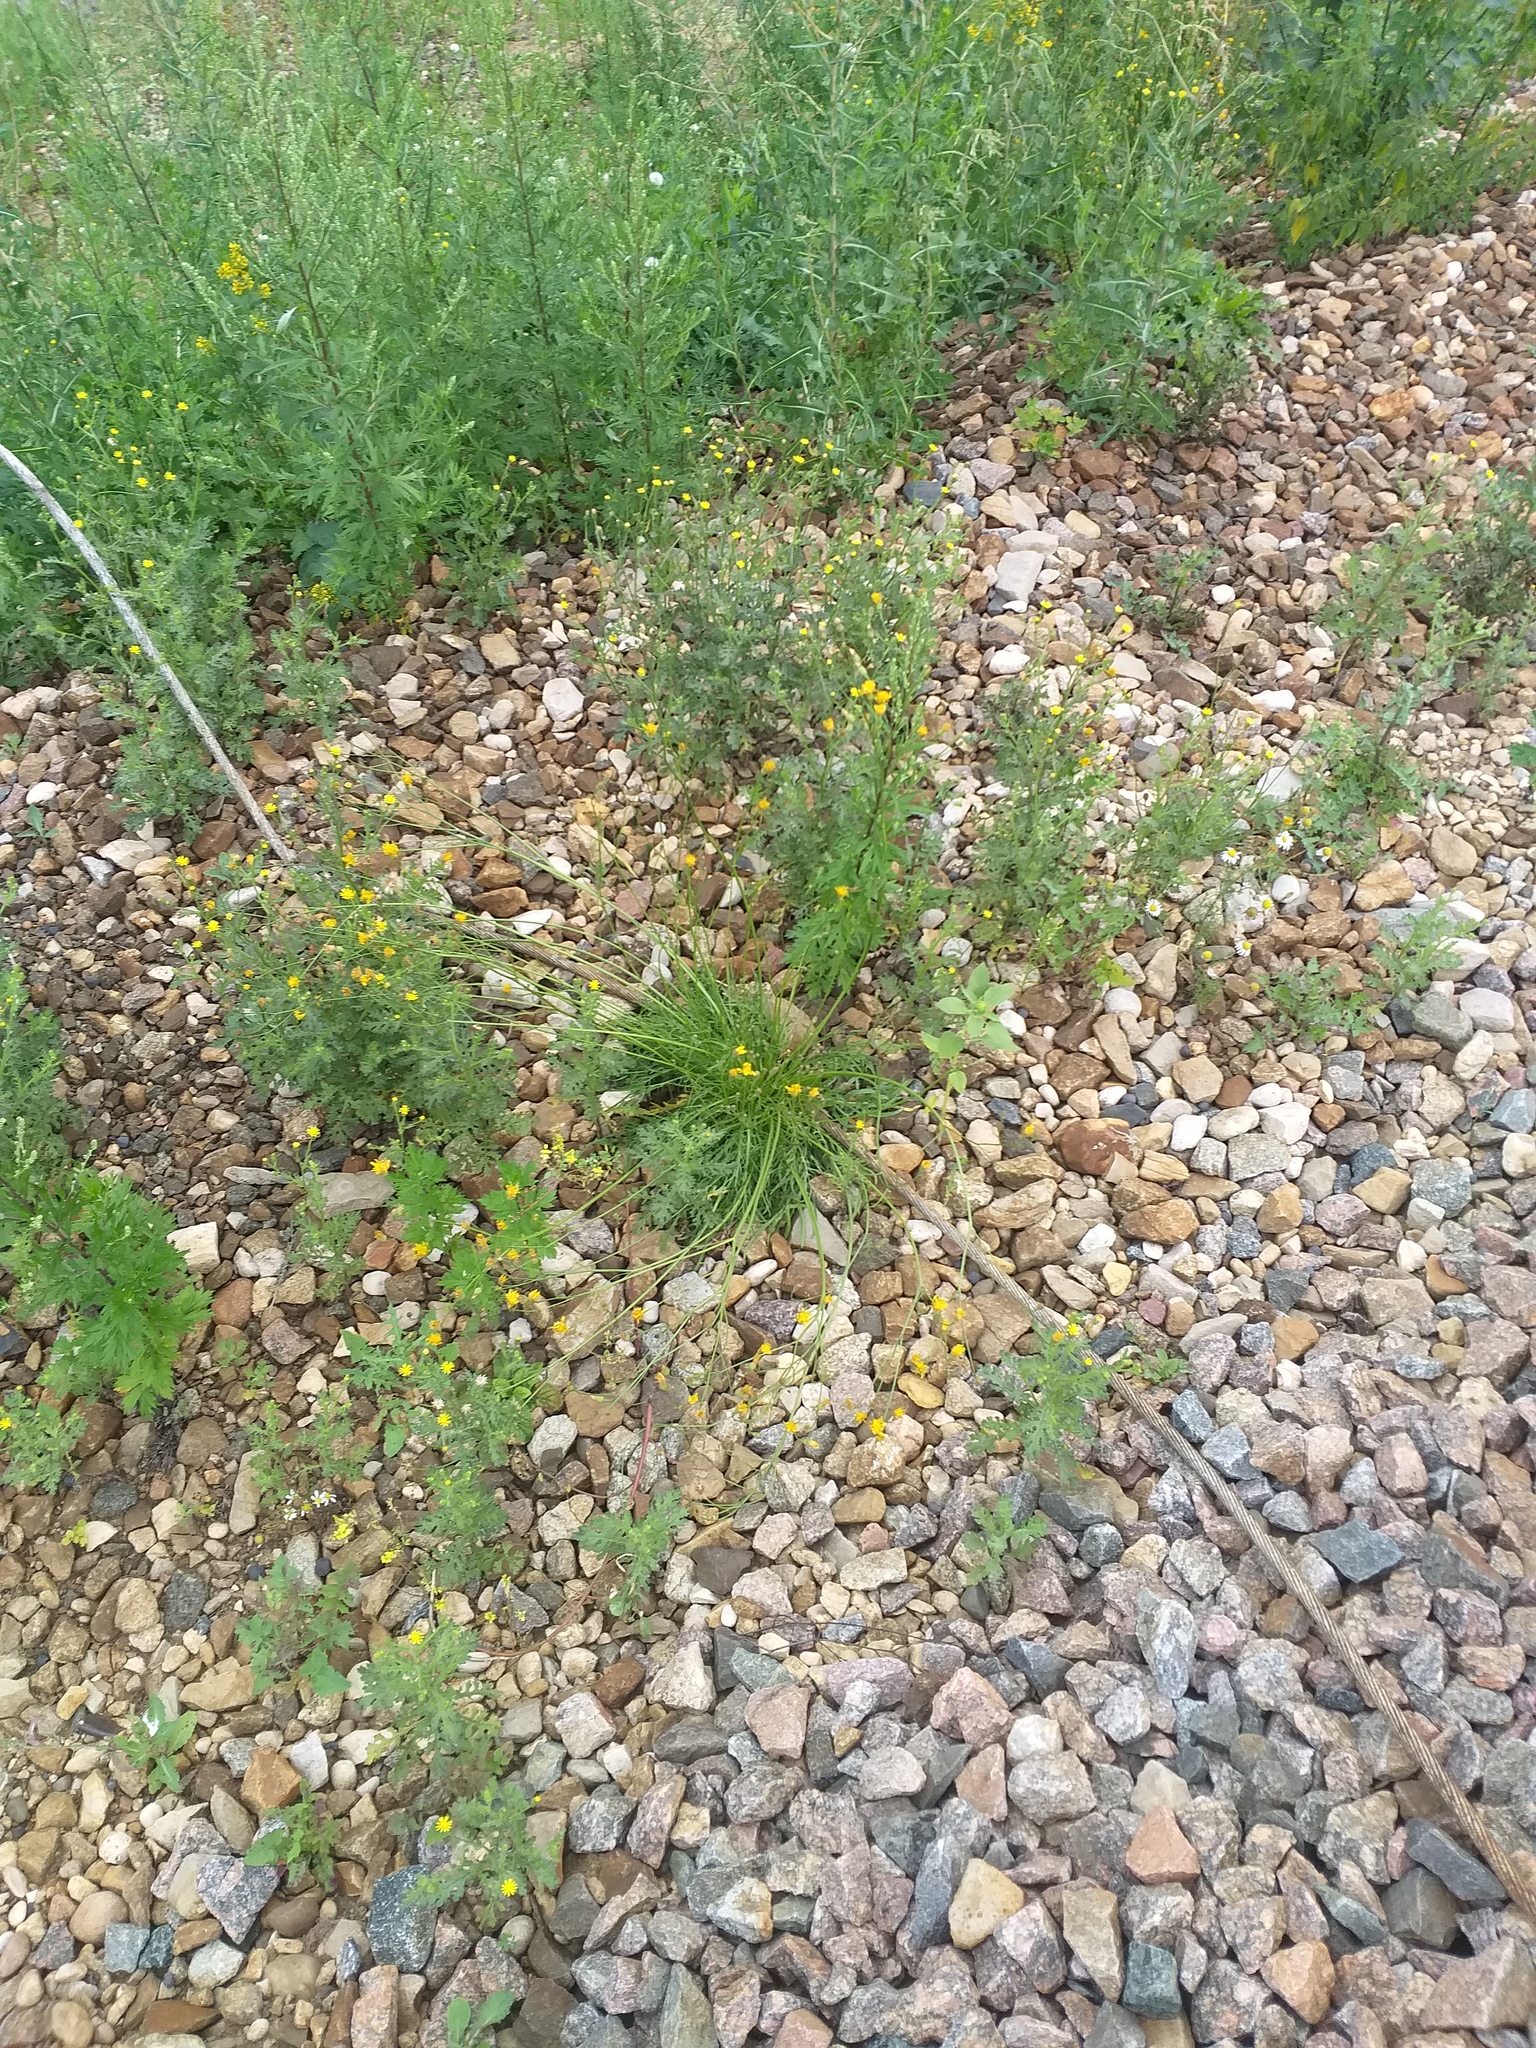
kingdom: Plantae
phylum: Tracheophyta
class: Magnoliopsida
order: Asterales
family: Asteraceae
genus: Scorzoneroides
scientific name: Scorzoneroides autumnalis
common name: Autumn hawkbit
